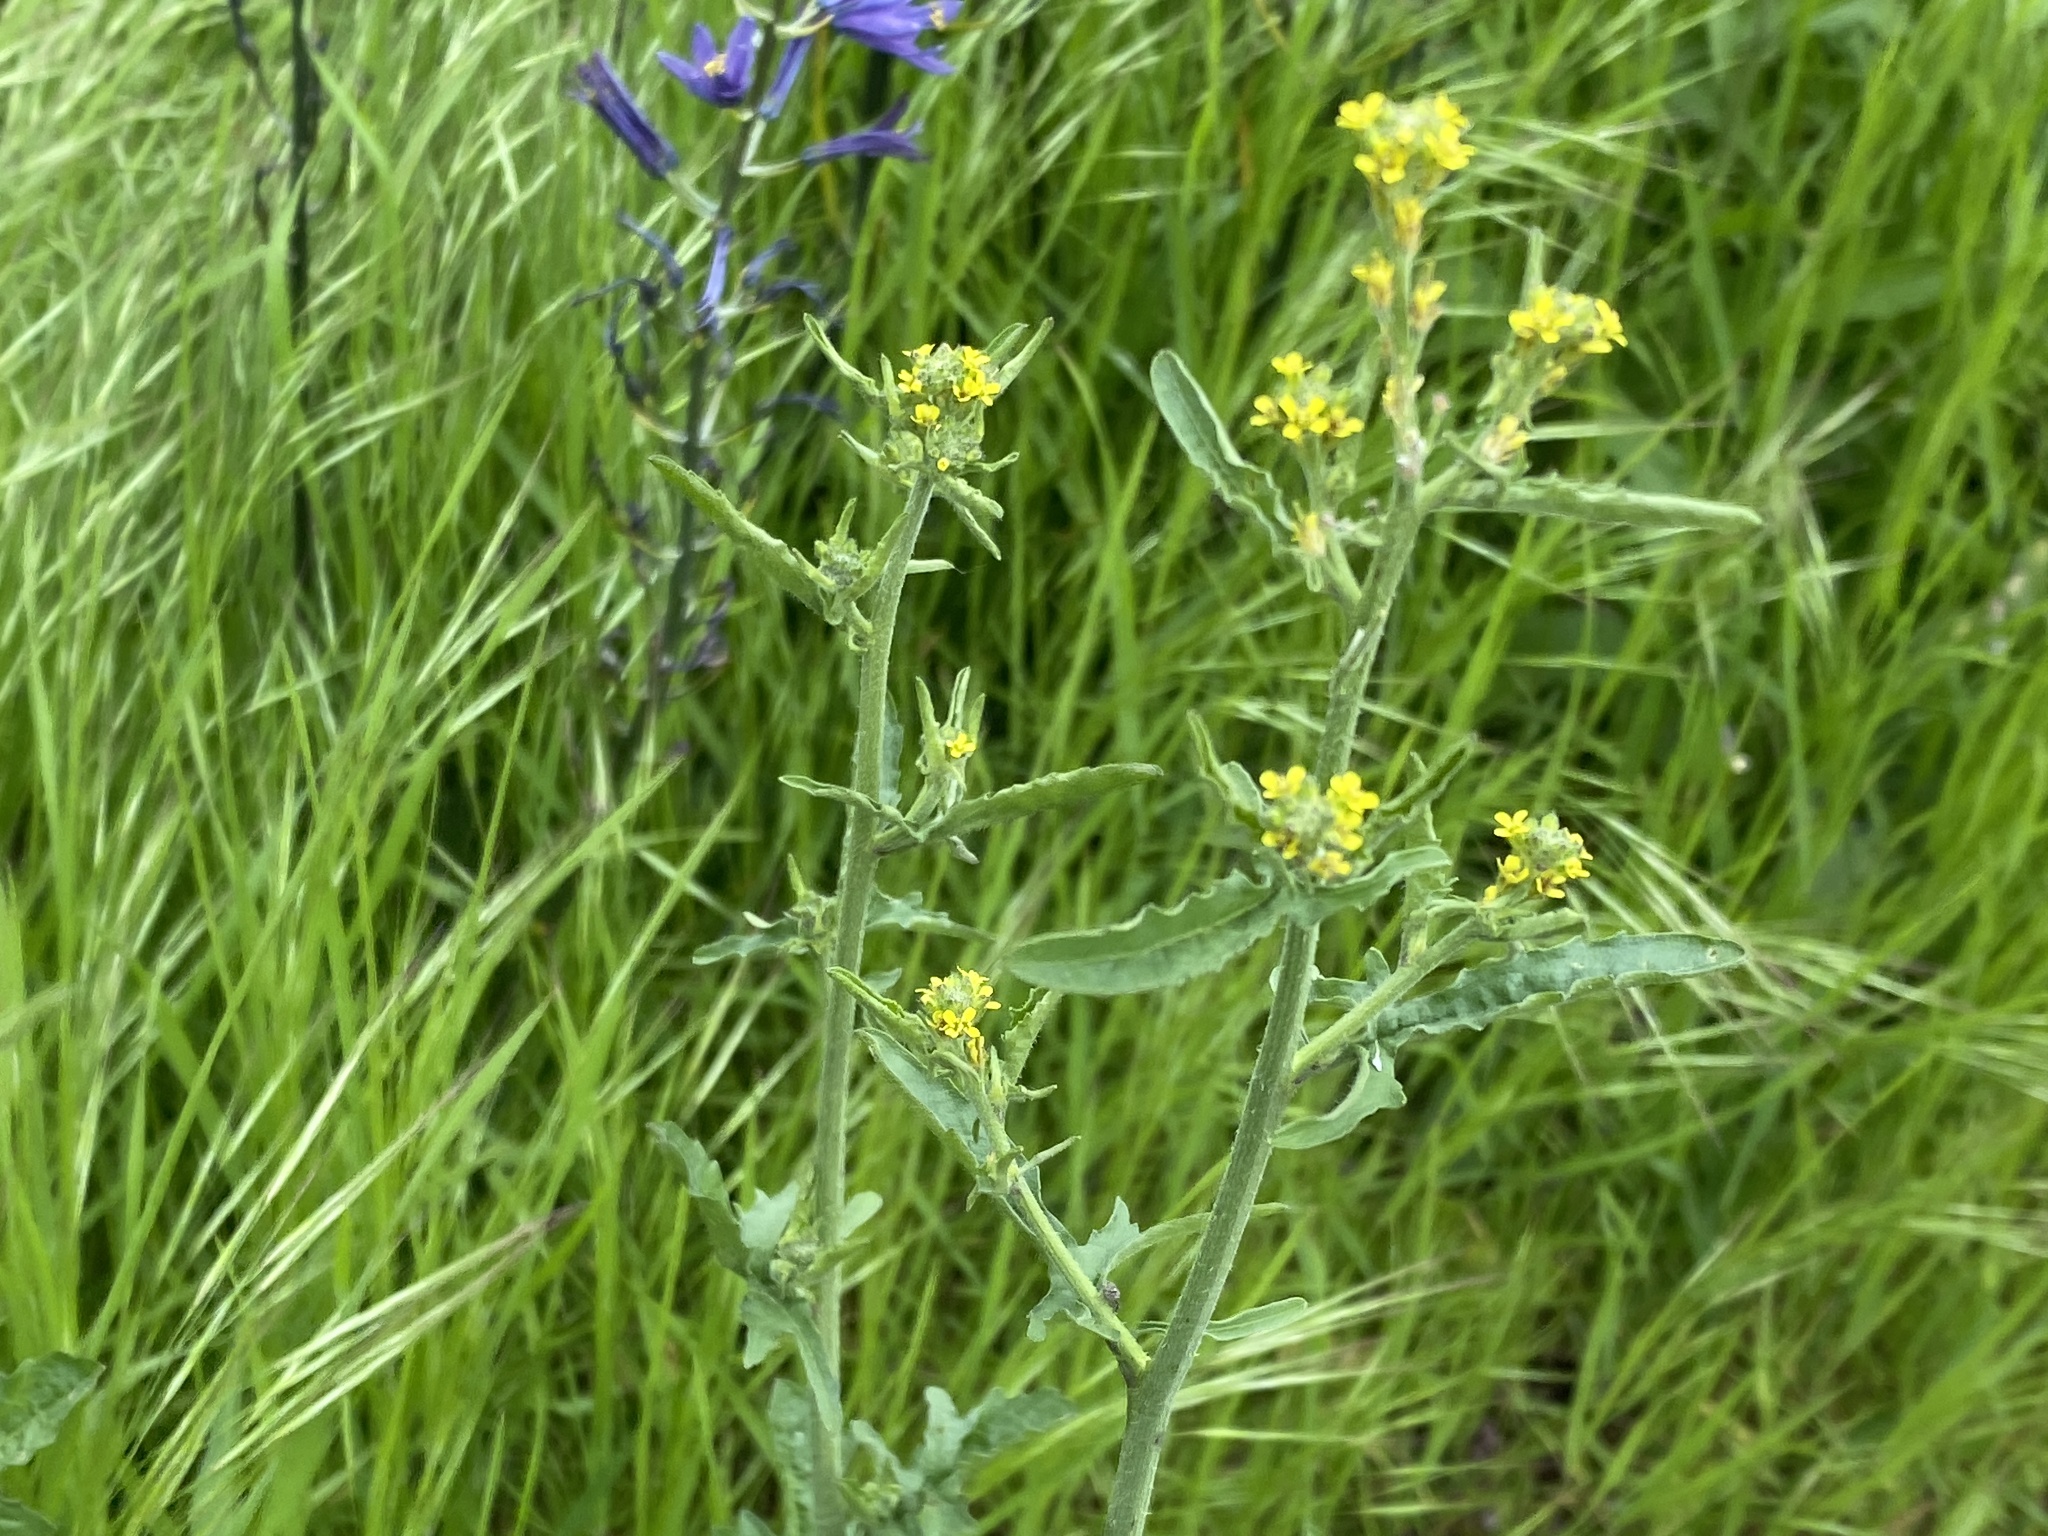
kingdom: Plantae
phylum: Tracheophyta
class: Magnoliopsida
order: Brassicales
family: Brassicaceae
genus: Sisymbrium
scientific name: Sisymbrium officinale
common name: Hedge mustard
